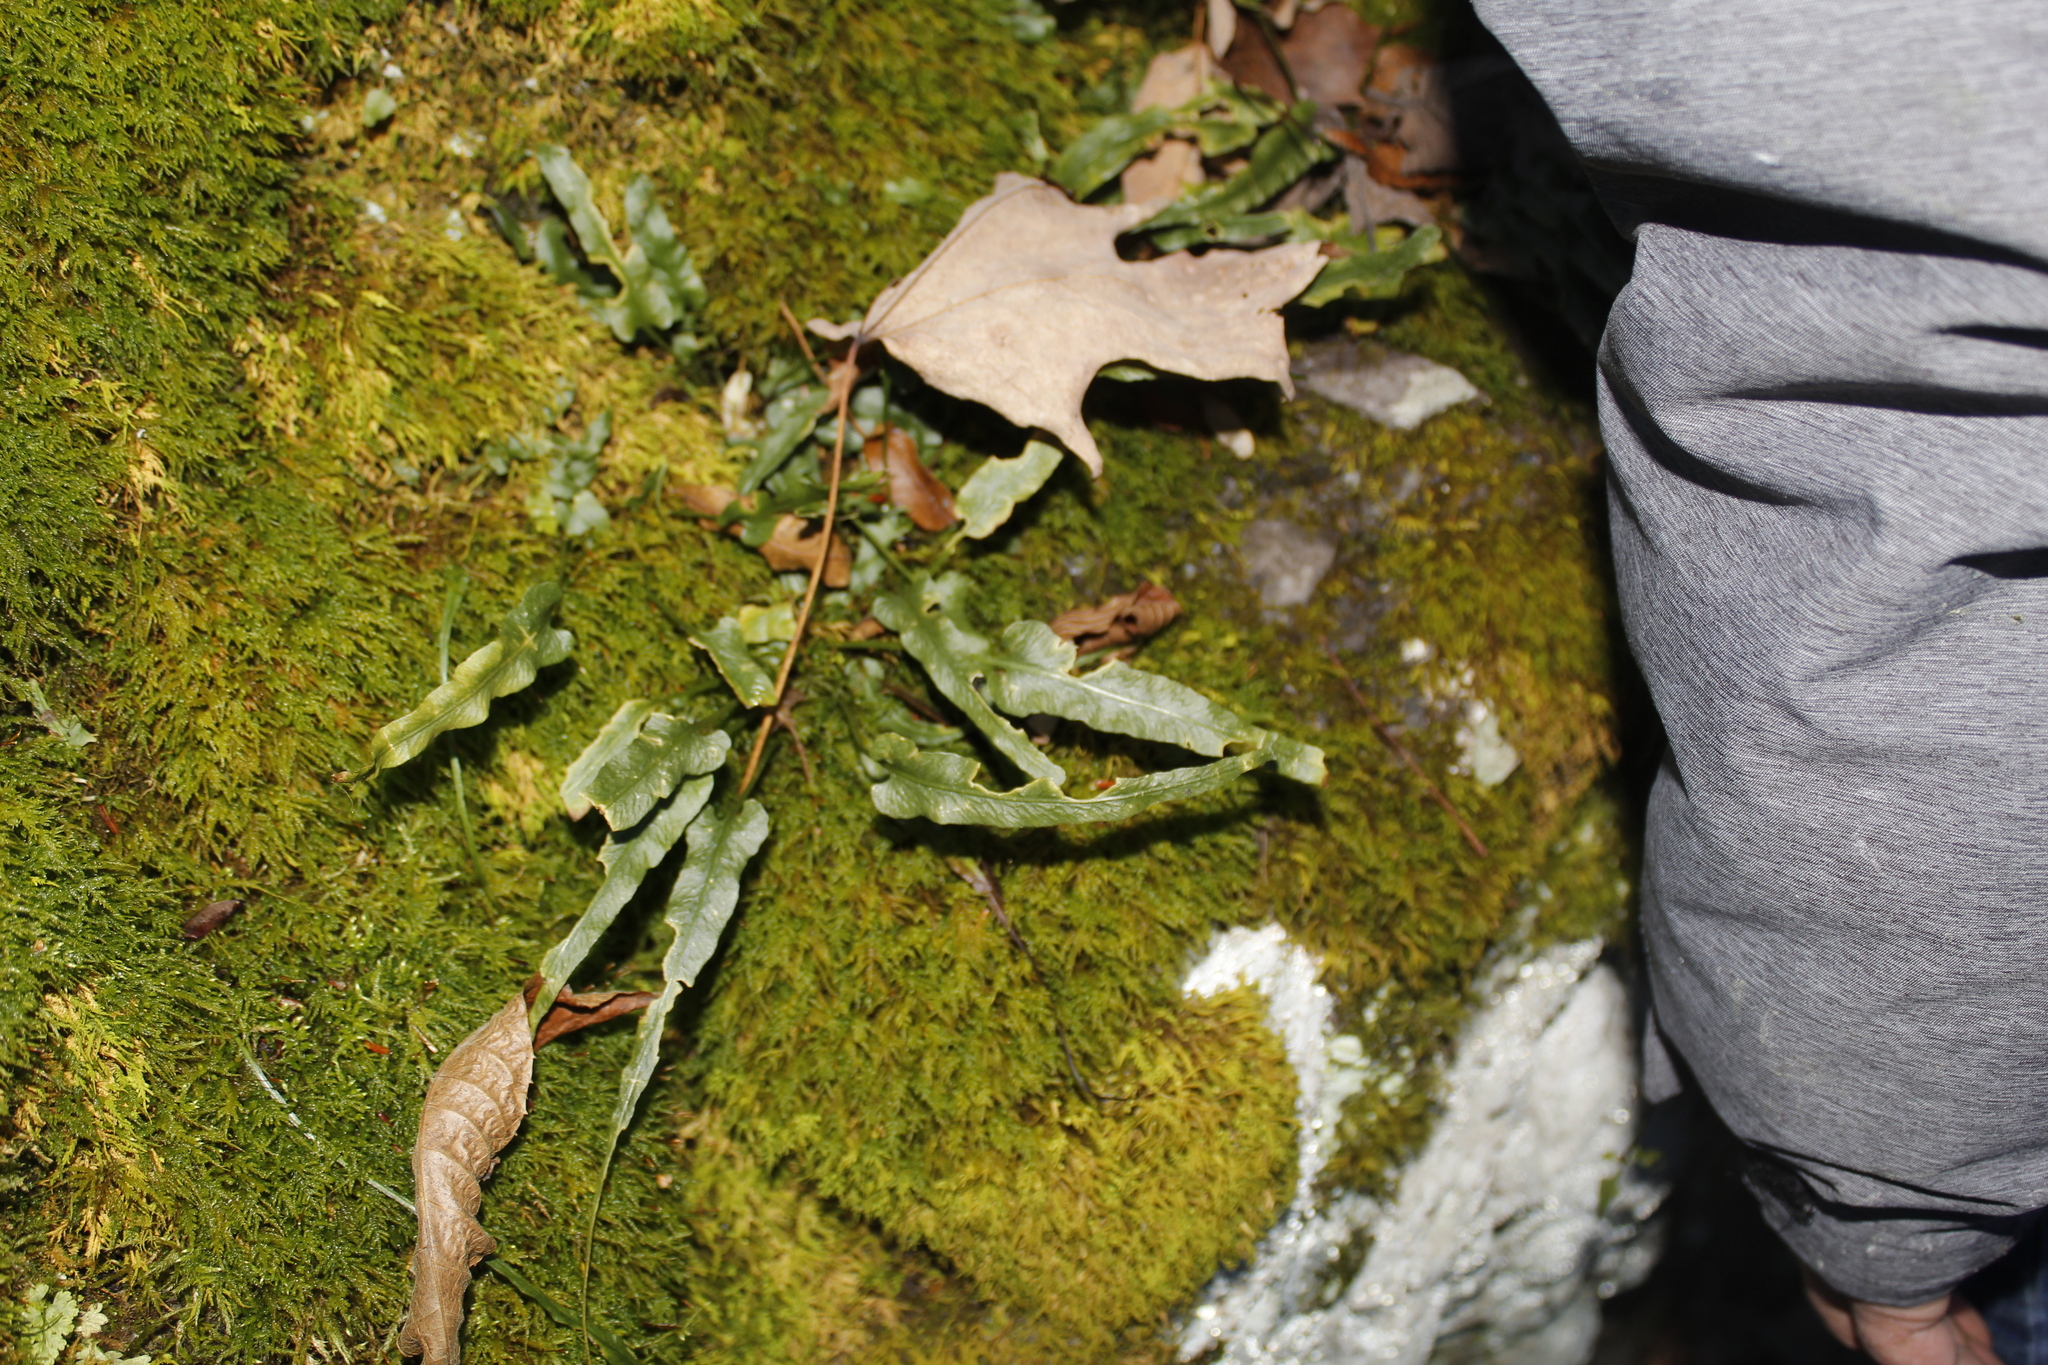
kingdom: Plantae
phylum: Tracheophyta
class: Polypodiopsida
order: Polypodiales
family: Aspleniaceae
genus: Asplenium
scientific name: Asplenium rhizophyllum
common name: Walking fern
